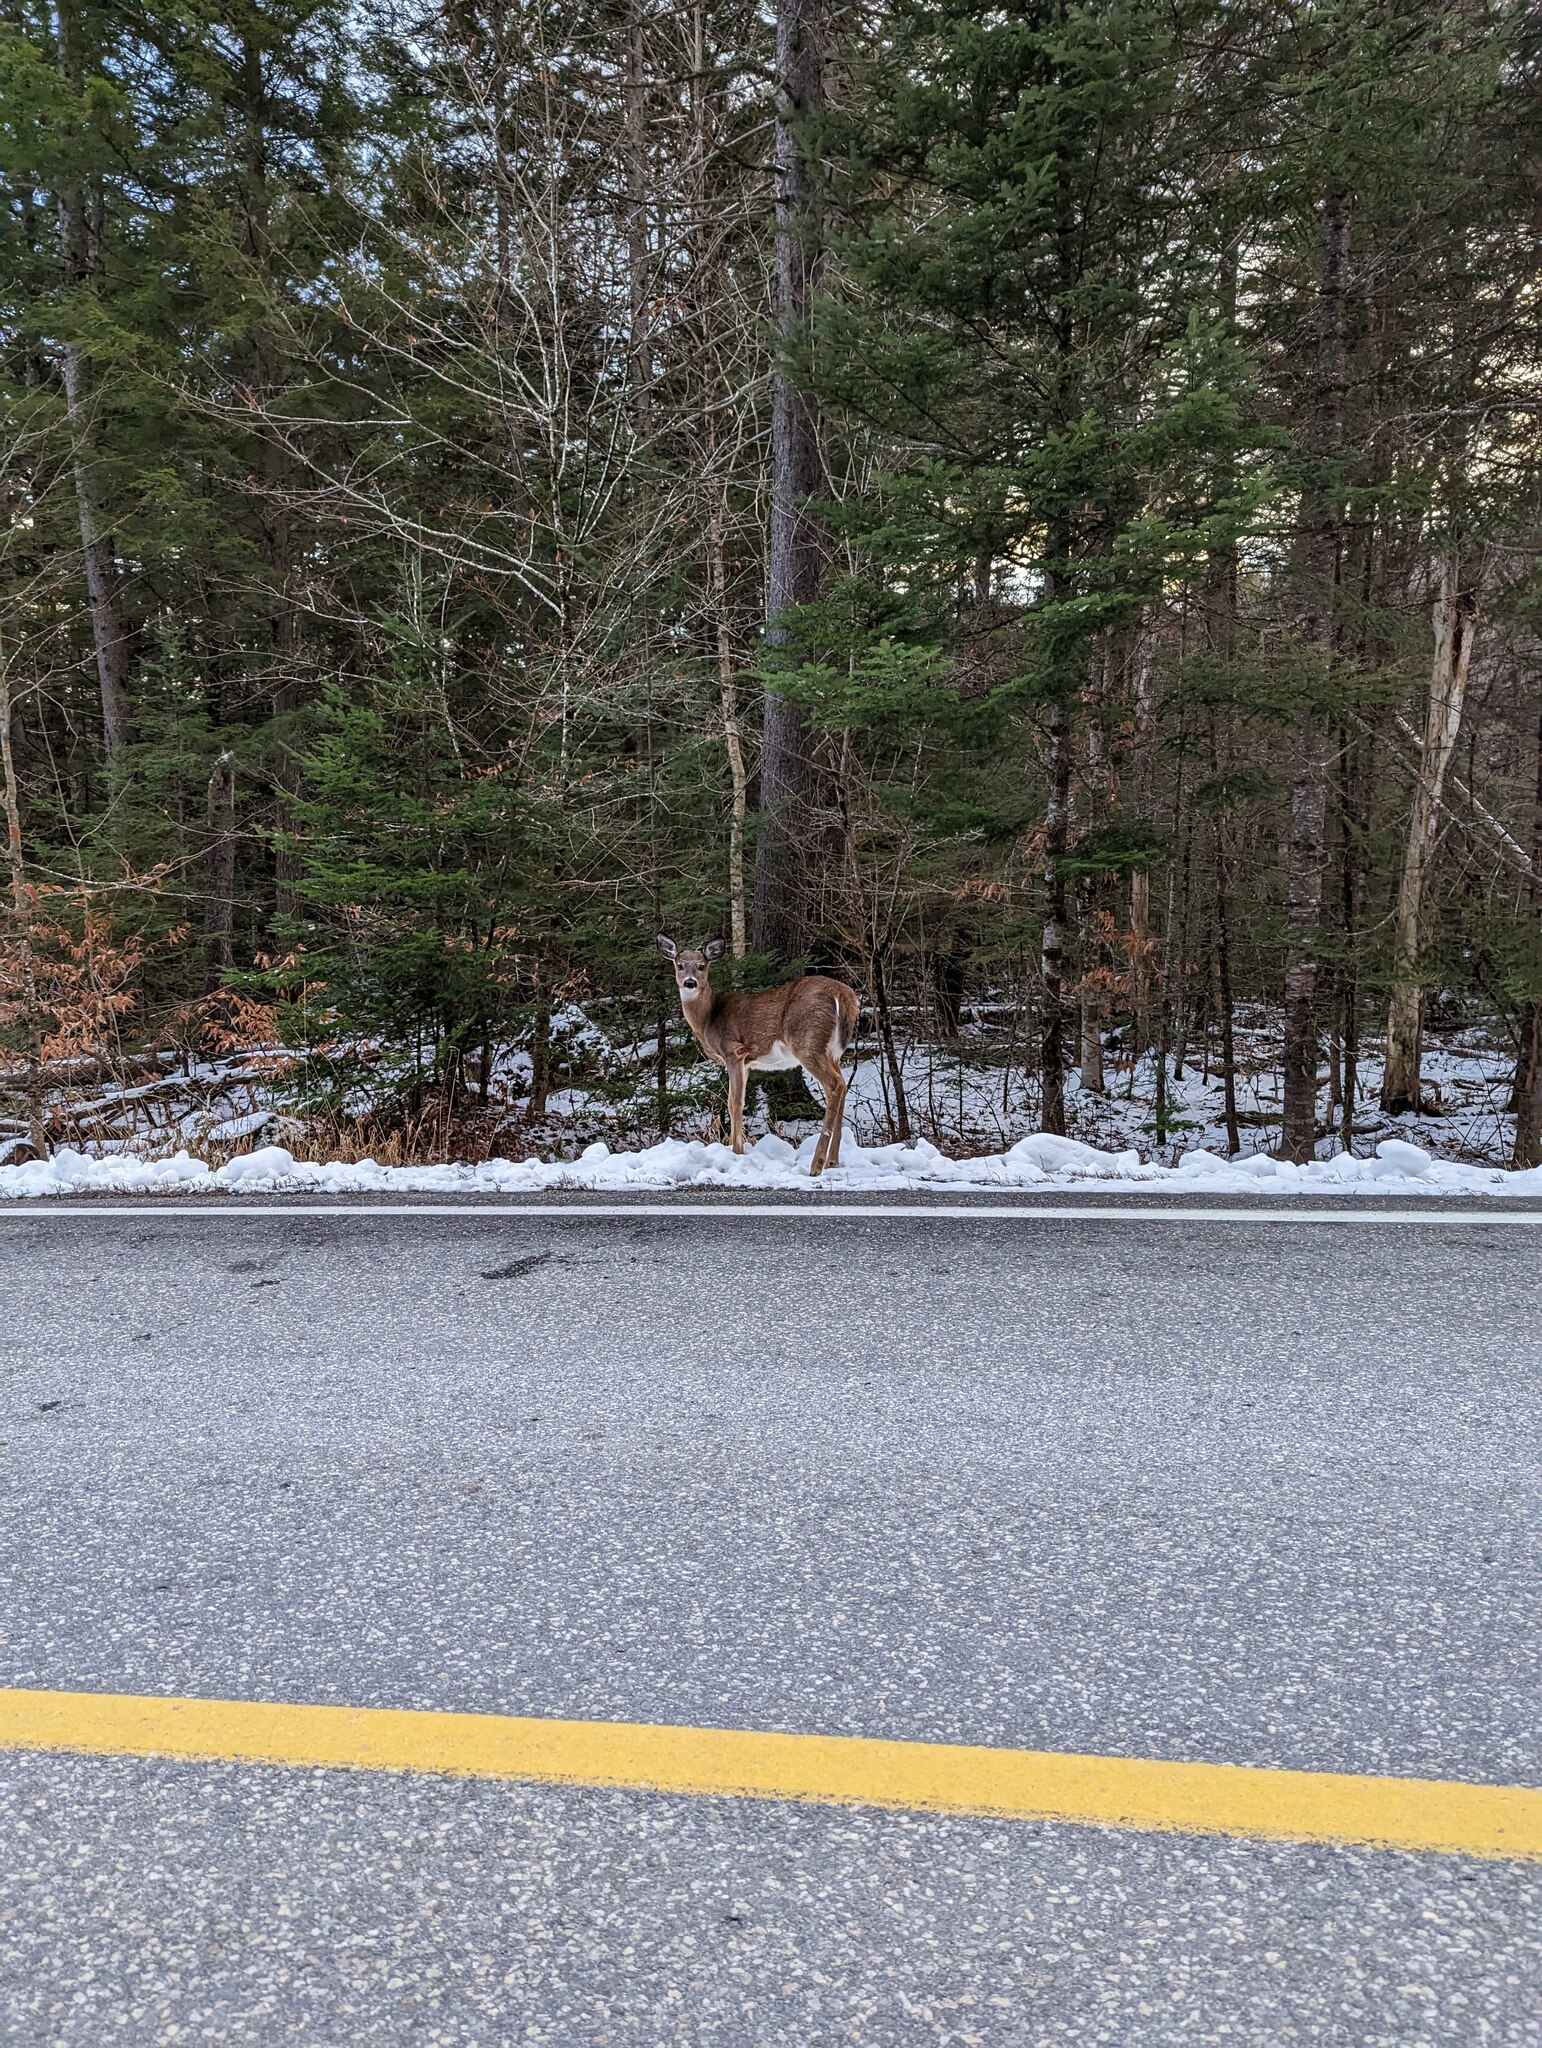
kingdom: Animalia
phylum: Chordata
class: Mammalia
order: Artiodactyla
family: Cervidae
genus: Odocoileus
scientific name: Odocoileus virginianus
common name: White-tailed deer
